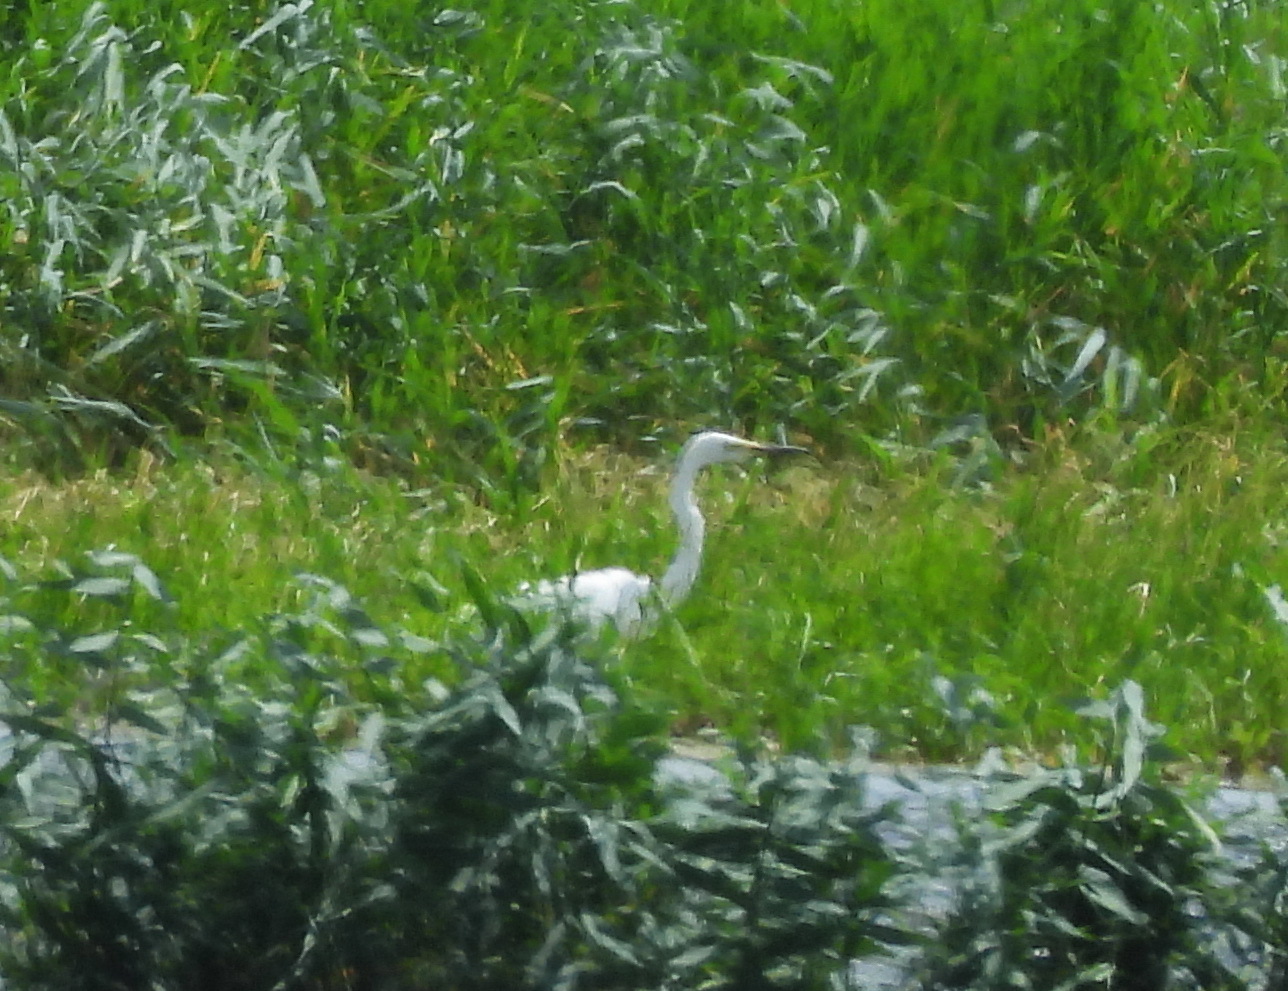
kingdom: Animalia
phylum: Chordata
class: Aves
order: Pelecaniformes
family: Ardeidae
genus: Egretta
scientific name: Egretta garzetta
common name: Little egret
